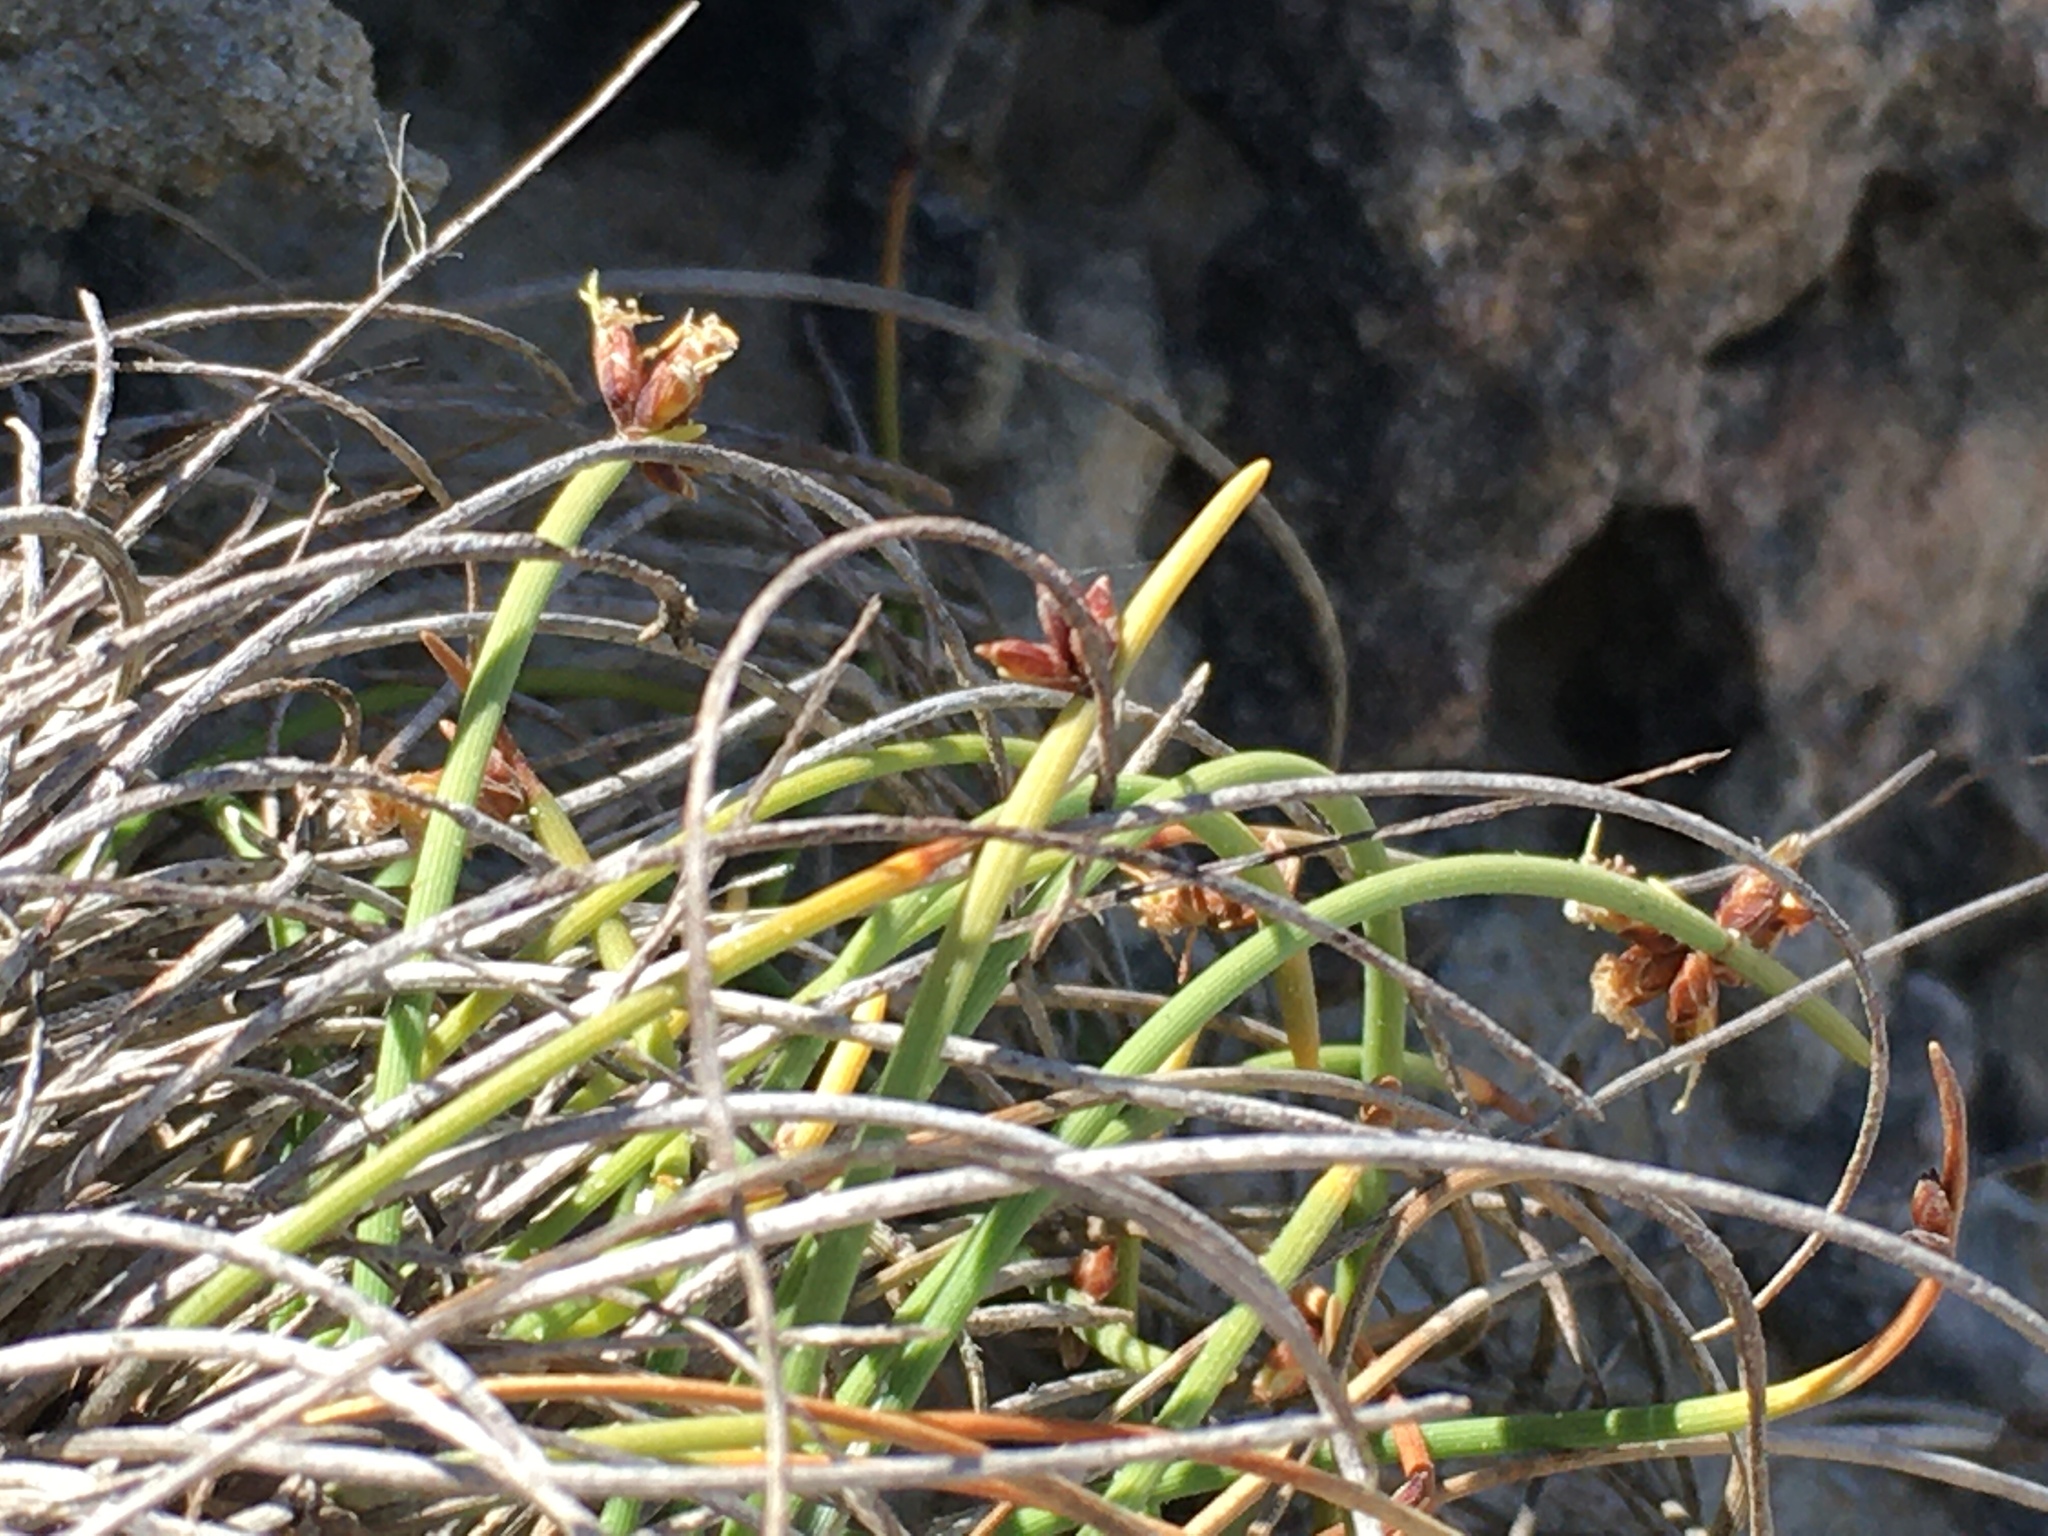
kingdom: Plantae
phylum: Tracheophyta
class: Liliopsida
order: Poales
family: Cyperaceae
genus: Ficinia
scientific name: Ficinia lateralis
